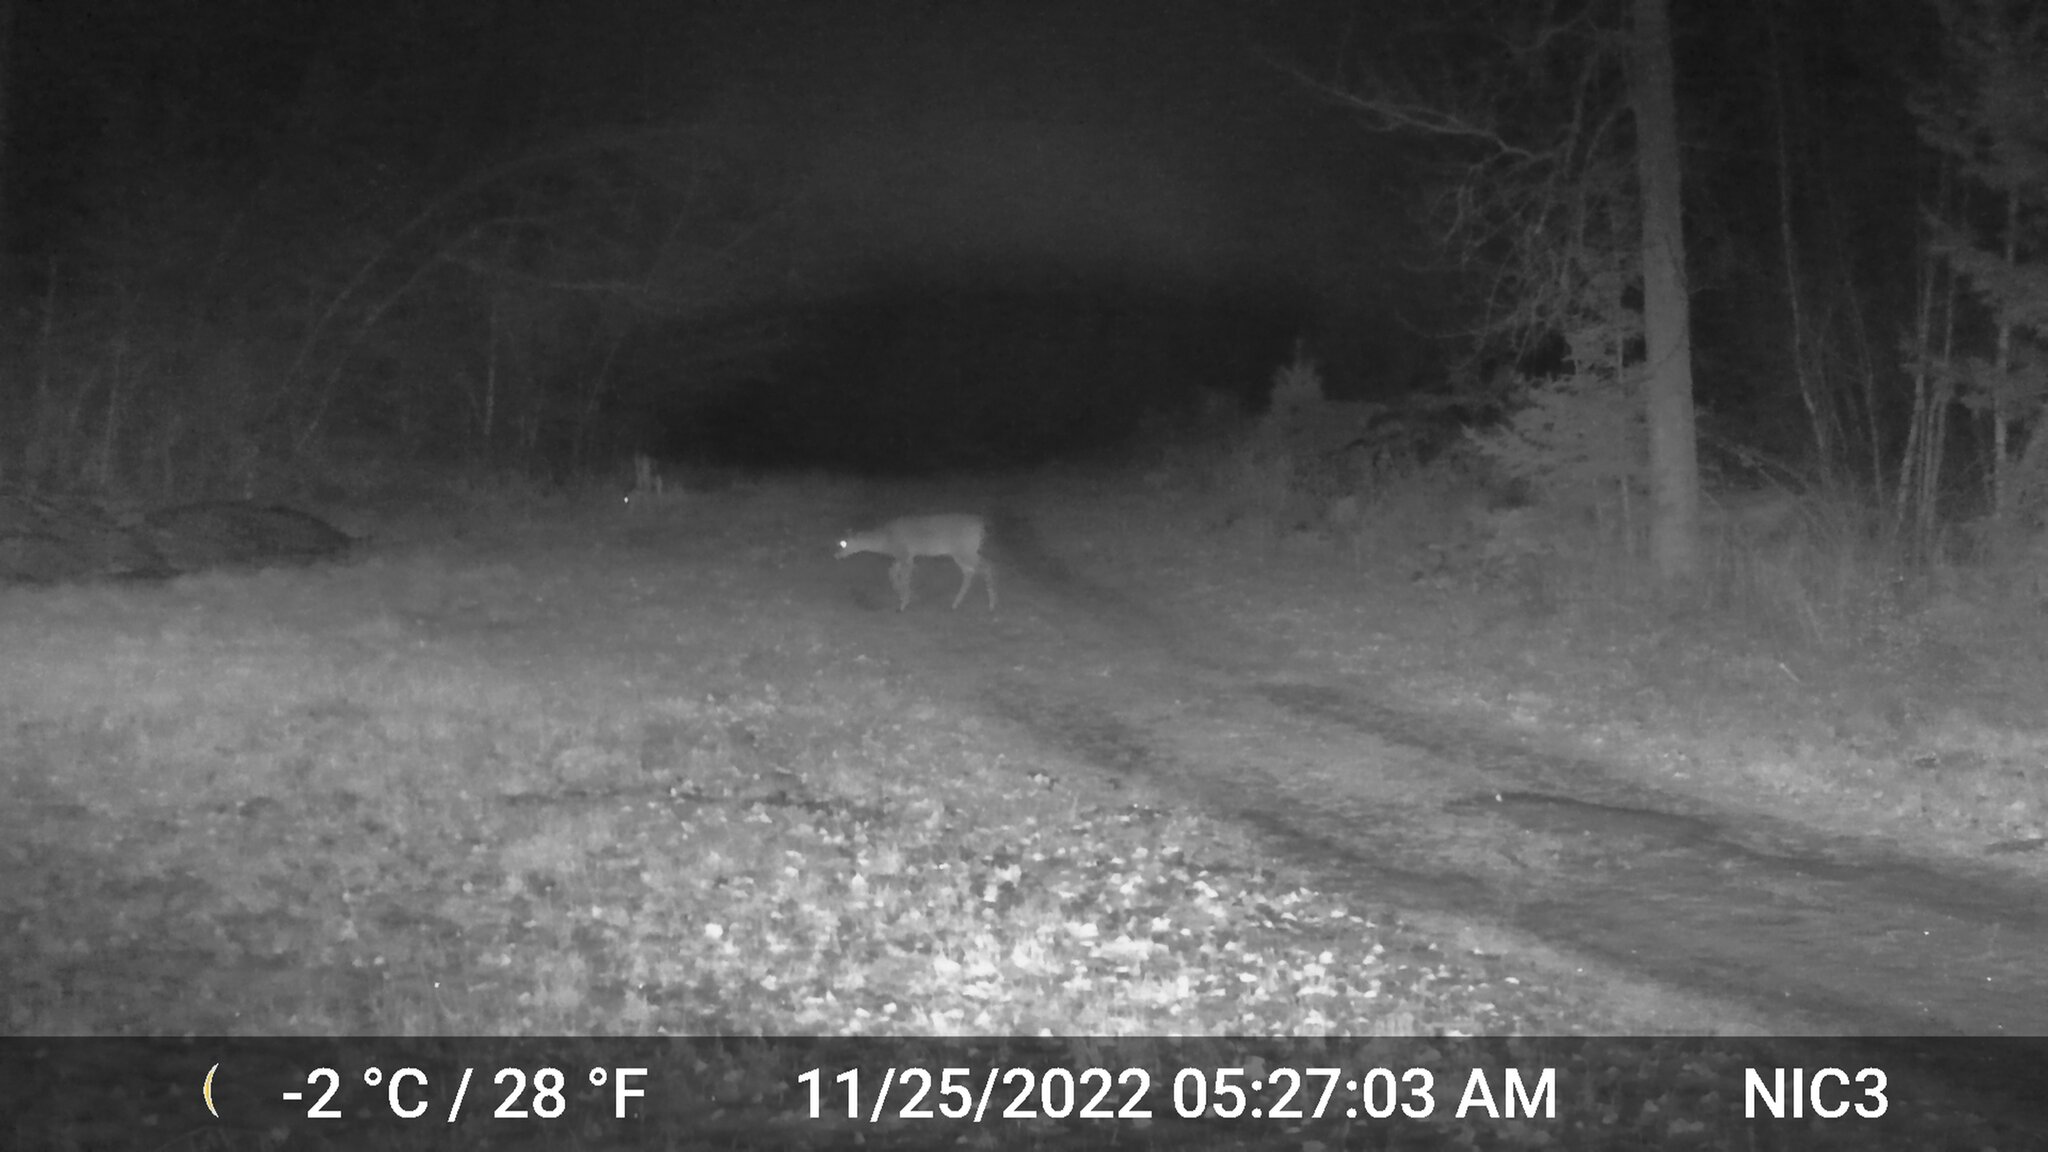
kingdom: Animalia
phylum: Chordata
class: Mammalia
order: Artiodactyla
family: Cervidae
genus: Odocoileus
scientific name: Odocoileus virginianus
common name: White-tailed deer
